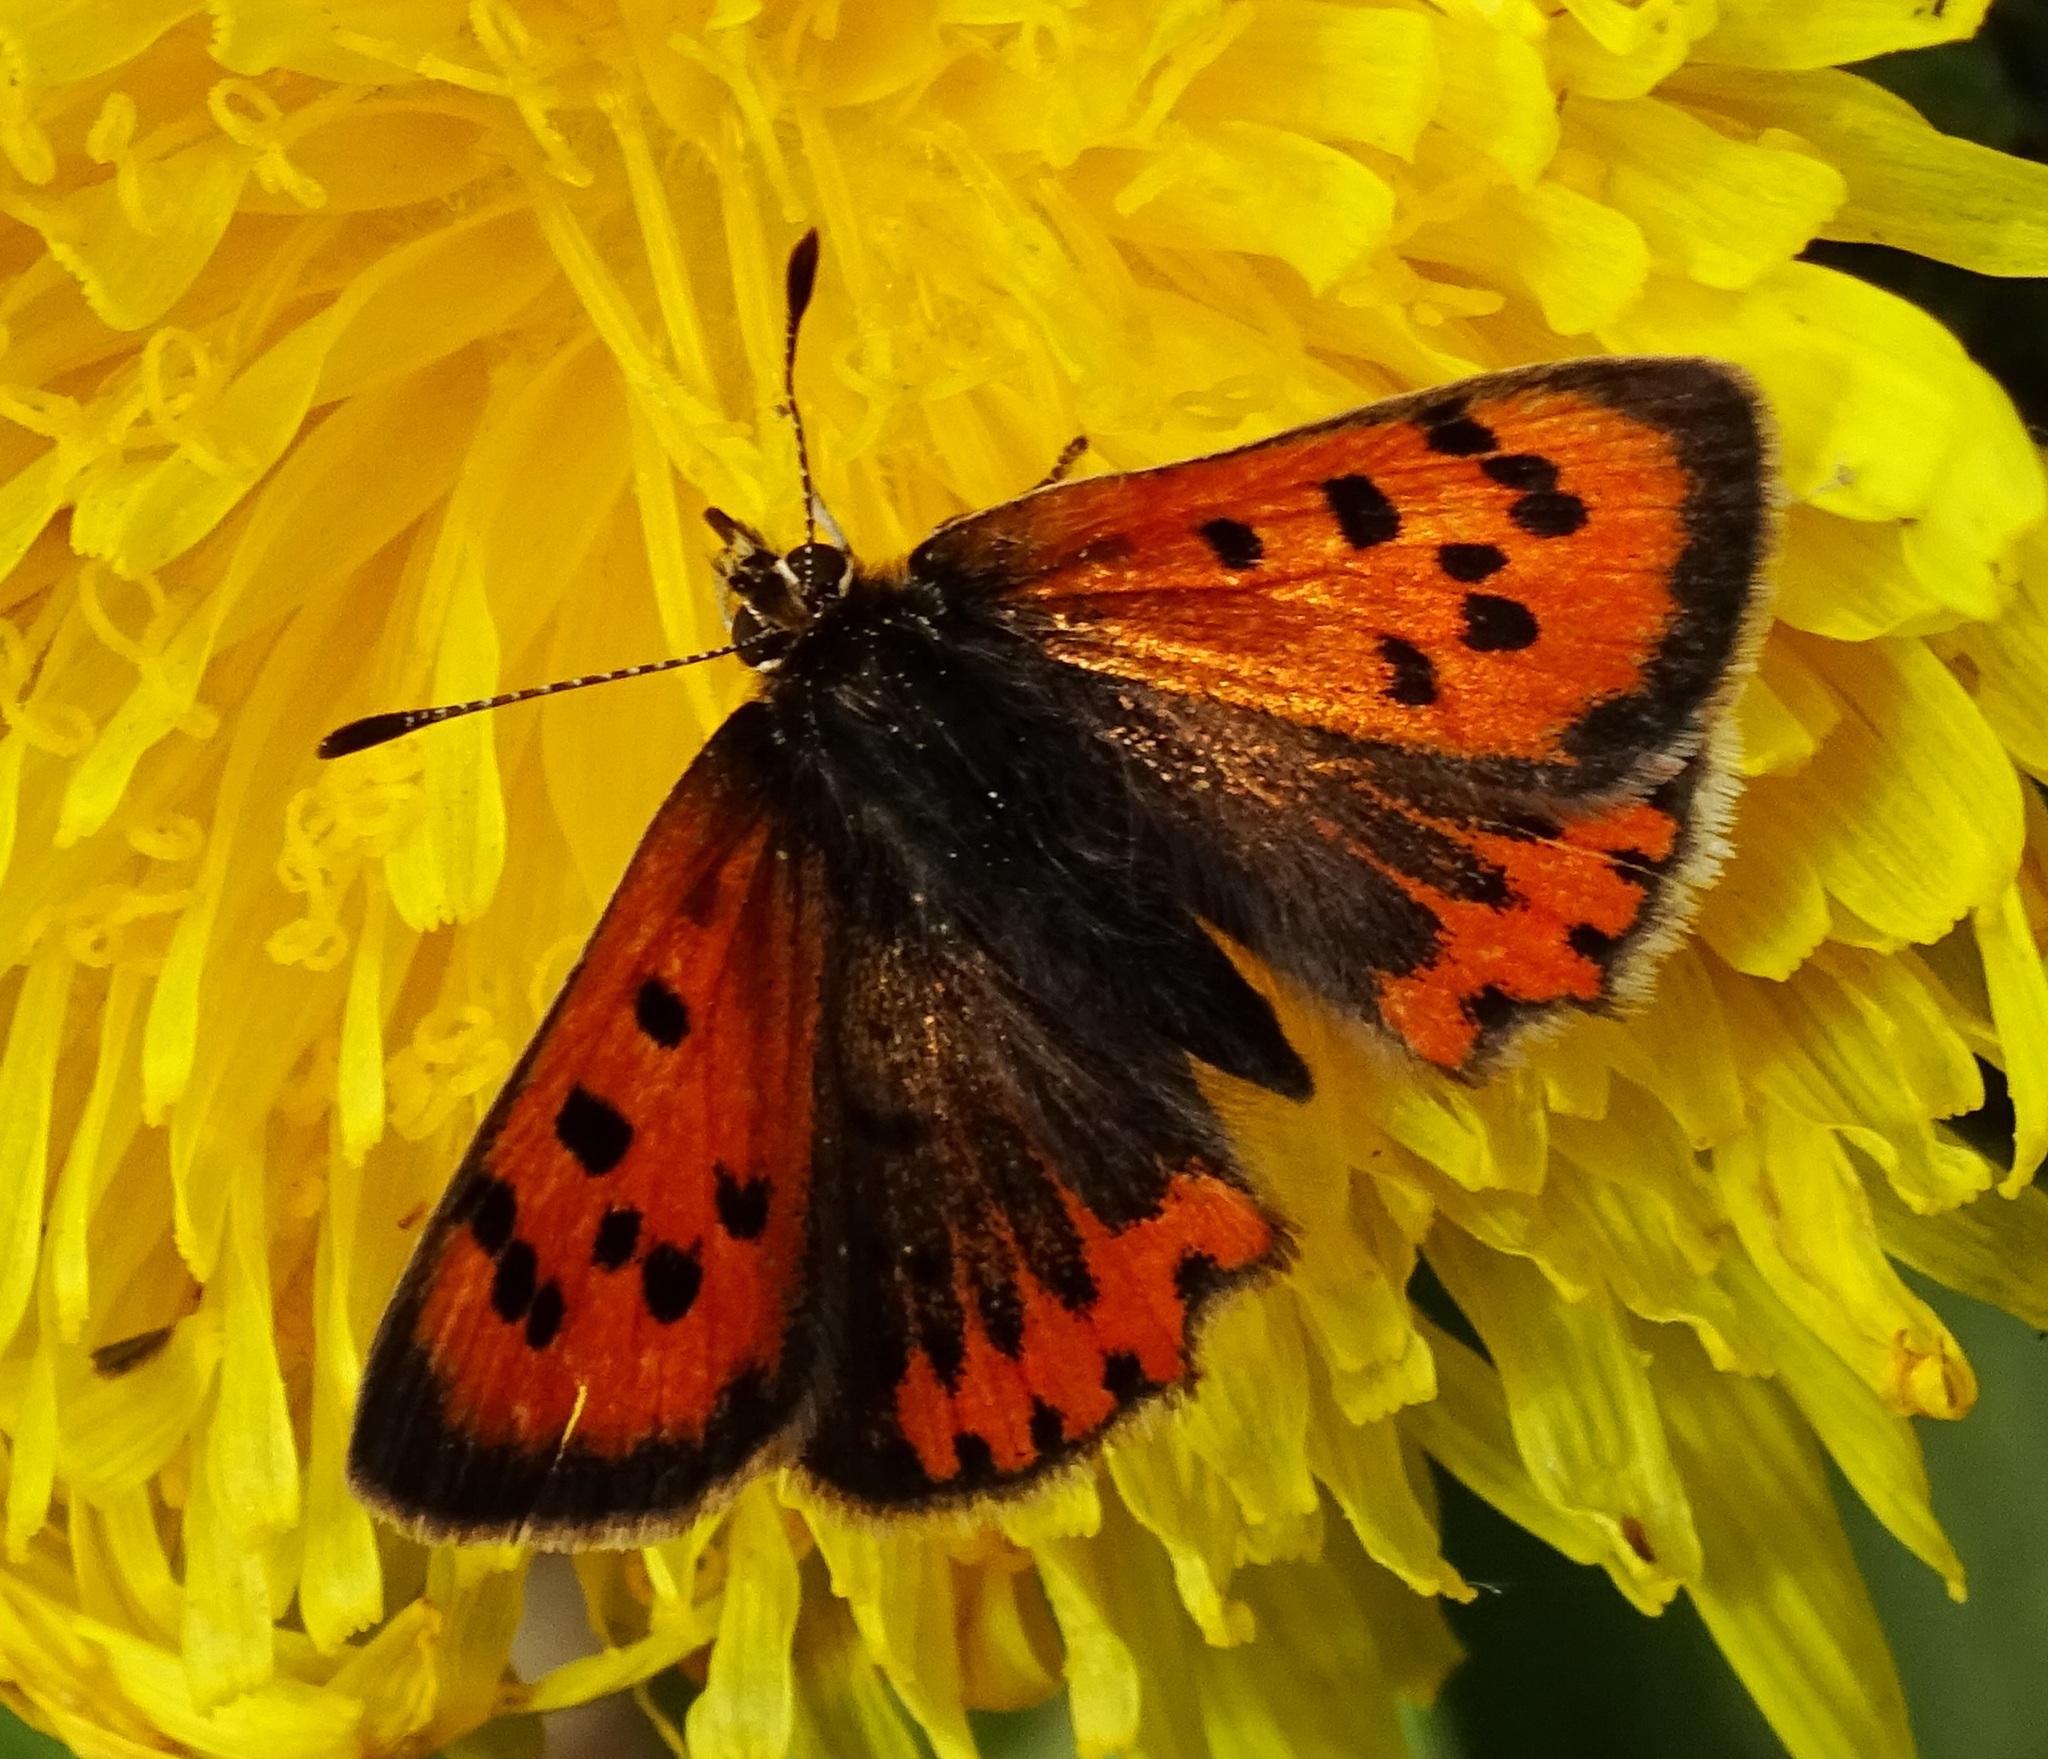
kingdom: Animalia
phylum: Arthropoda
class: Insecta
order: Lepidoptera
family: Lycaenidae
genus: Lycaena
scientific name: Lycaena phlaeas
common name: Small copper
